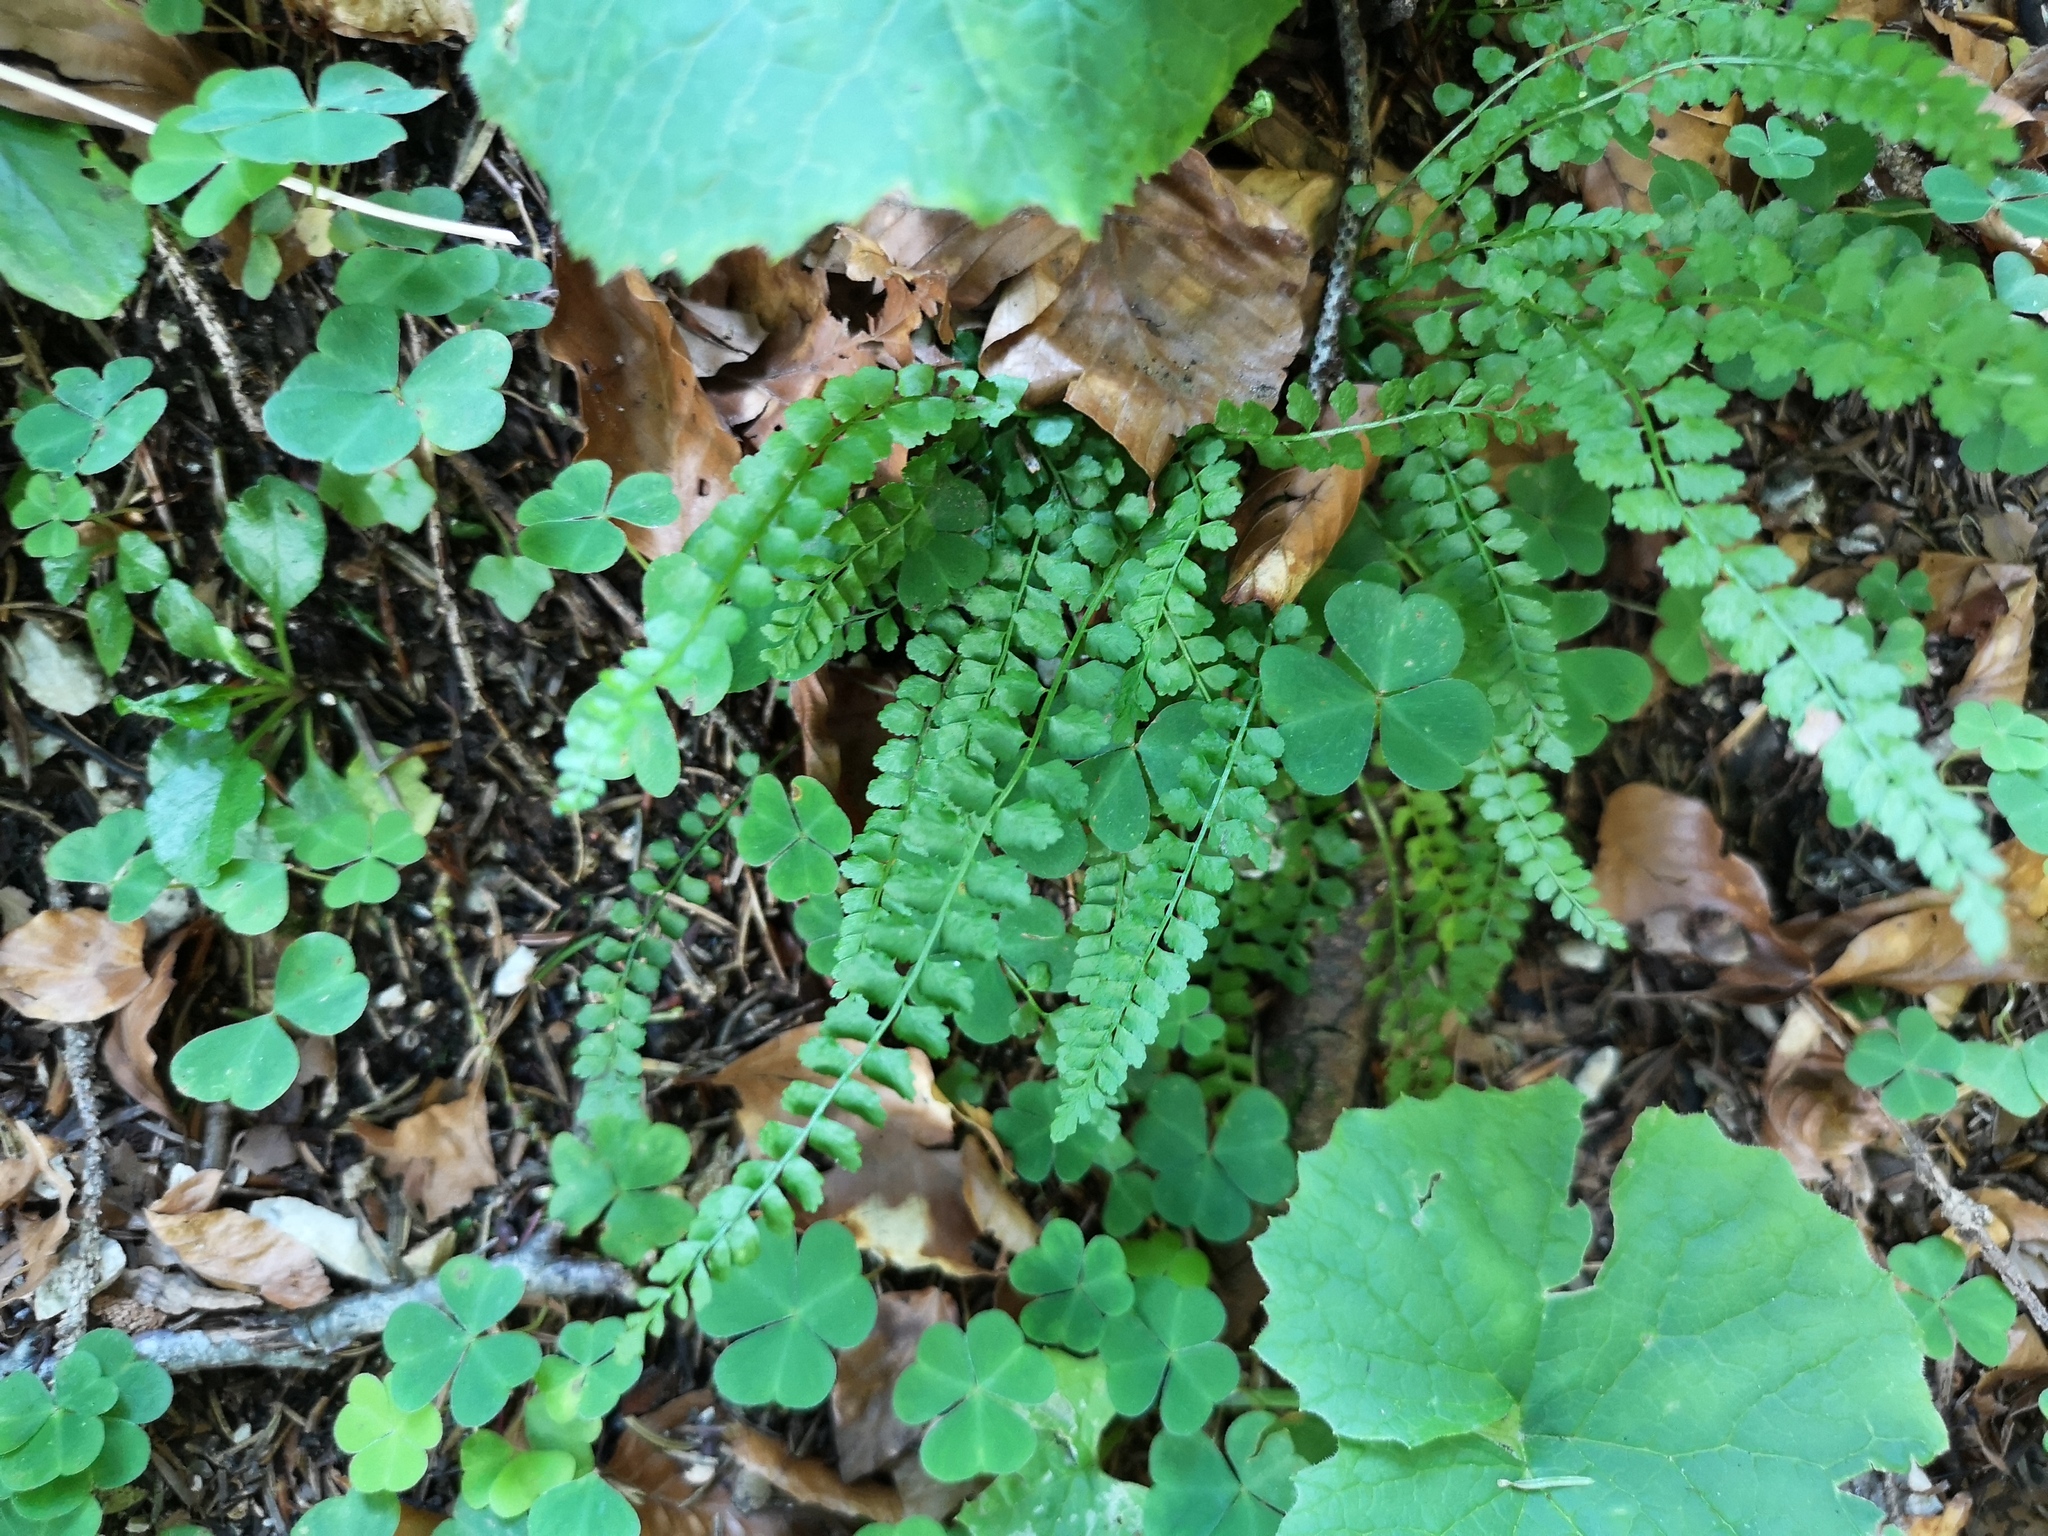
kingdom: Plantae
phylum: Tracheophyta
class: Polypodiopsida
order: Polypodiales
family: Aspleniaceae
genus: Asplenium
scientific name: Asplenium viride
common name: Green spleenwort
